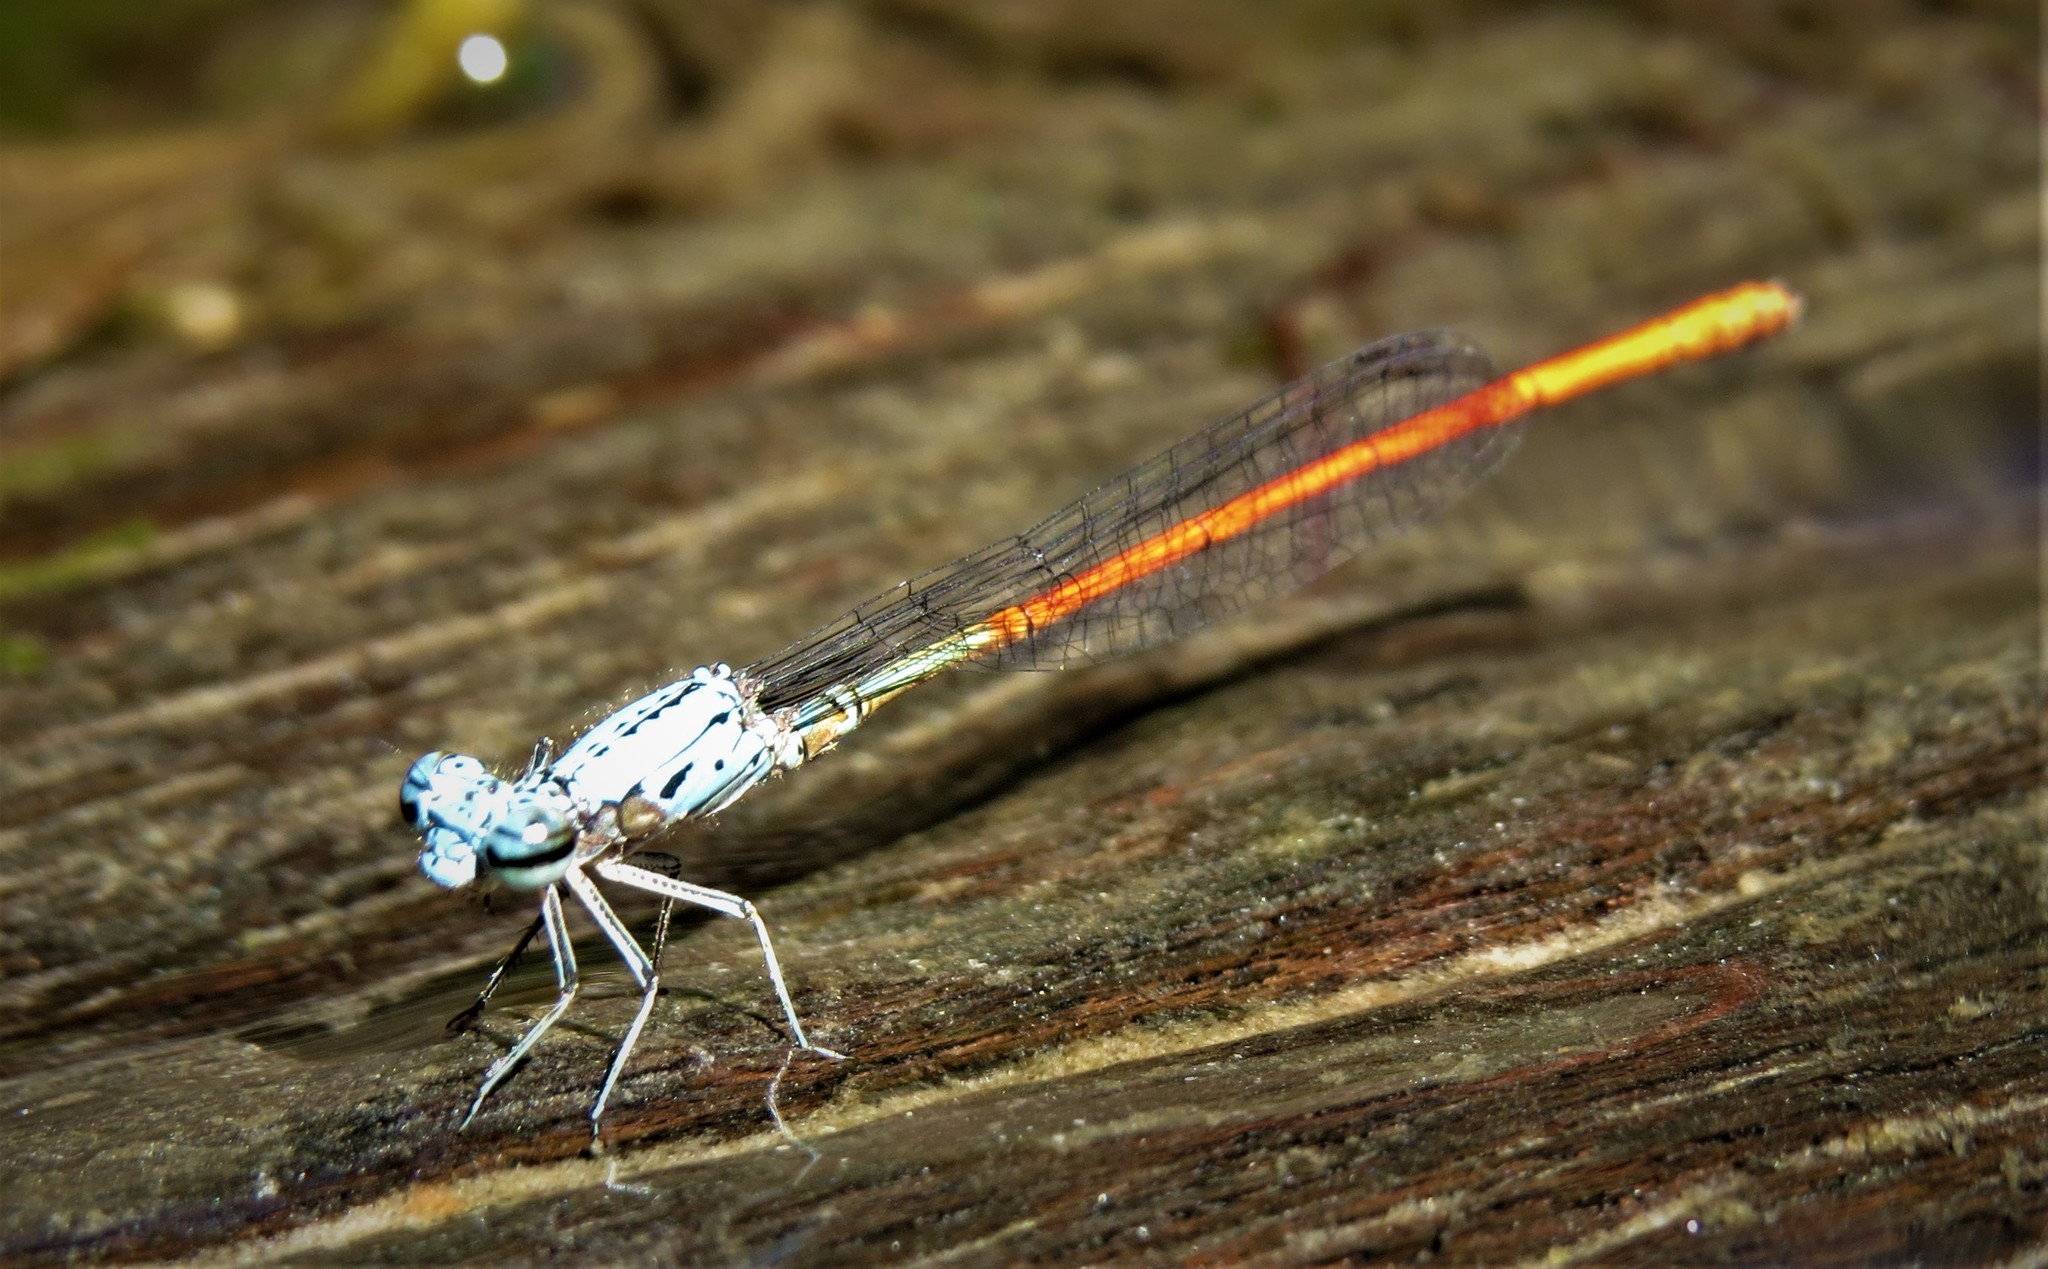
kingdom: Animalia
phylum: Arthropoda
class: Insecta
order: Odonata
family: Coenagrionidae
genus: Neoneura
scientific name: Neoneura sylvatica
